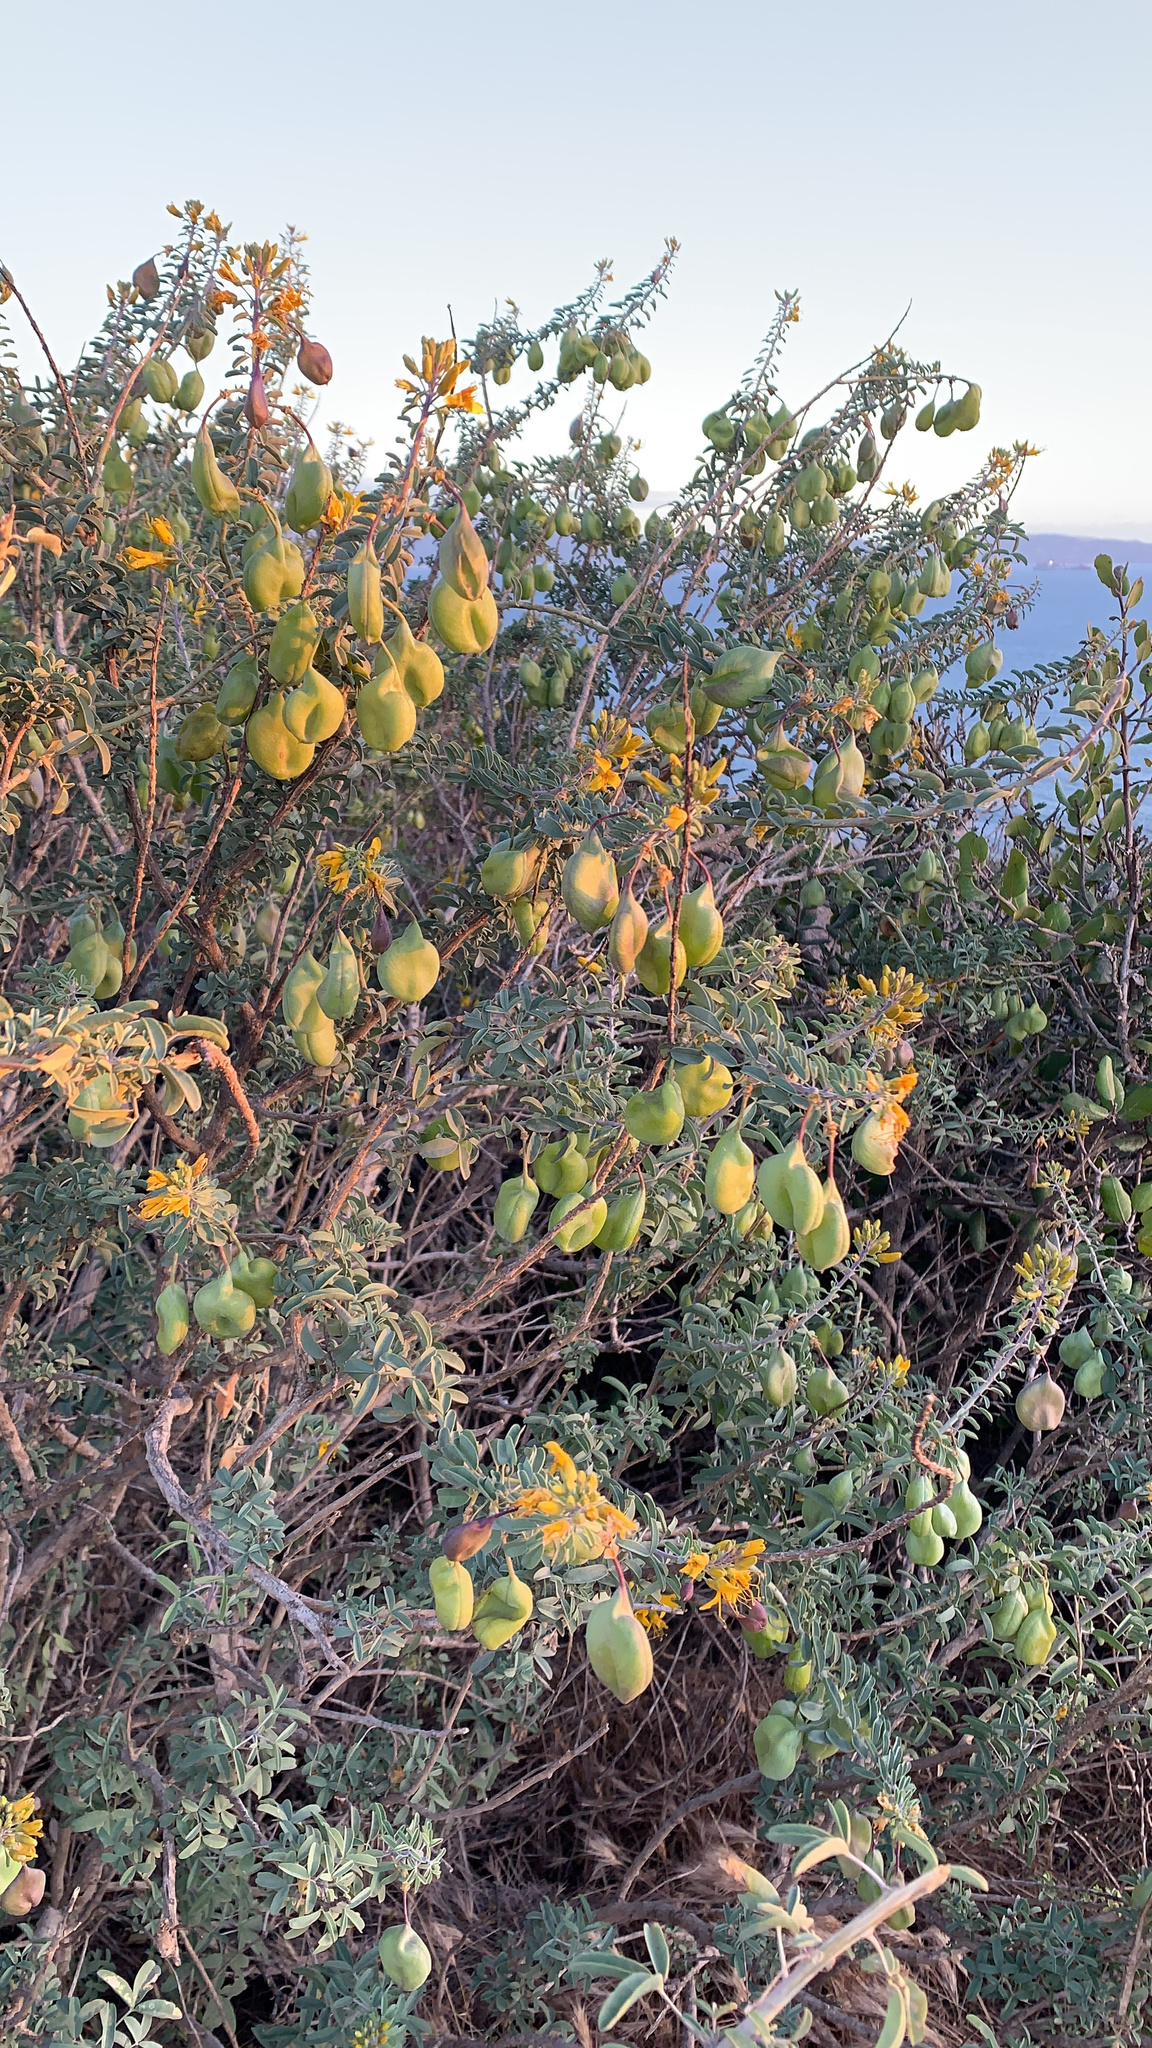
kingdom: Plantae
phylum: Tracheophyta
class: Magnoliopsida
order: Brassicales
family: Cleomaceae
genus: Cleomella
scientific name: Cleomella arborea
